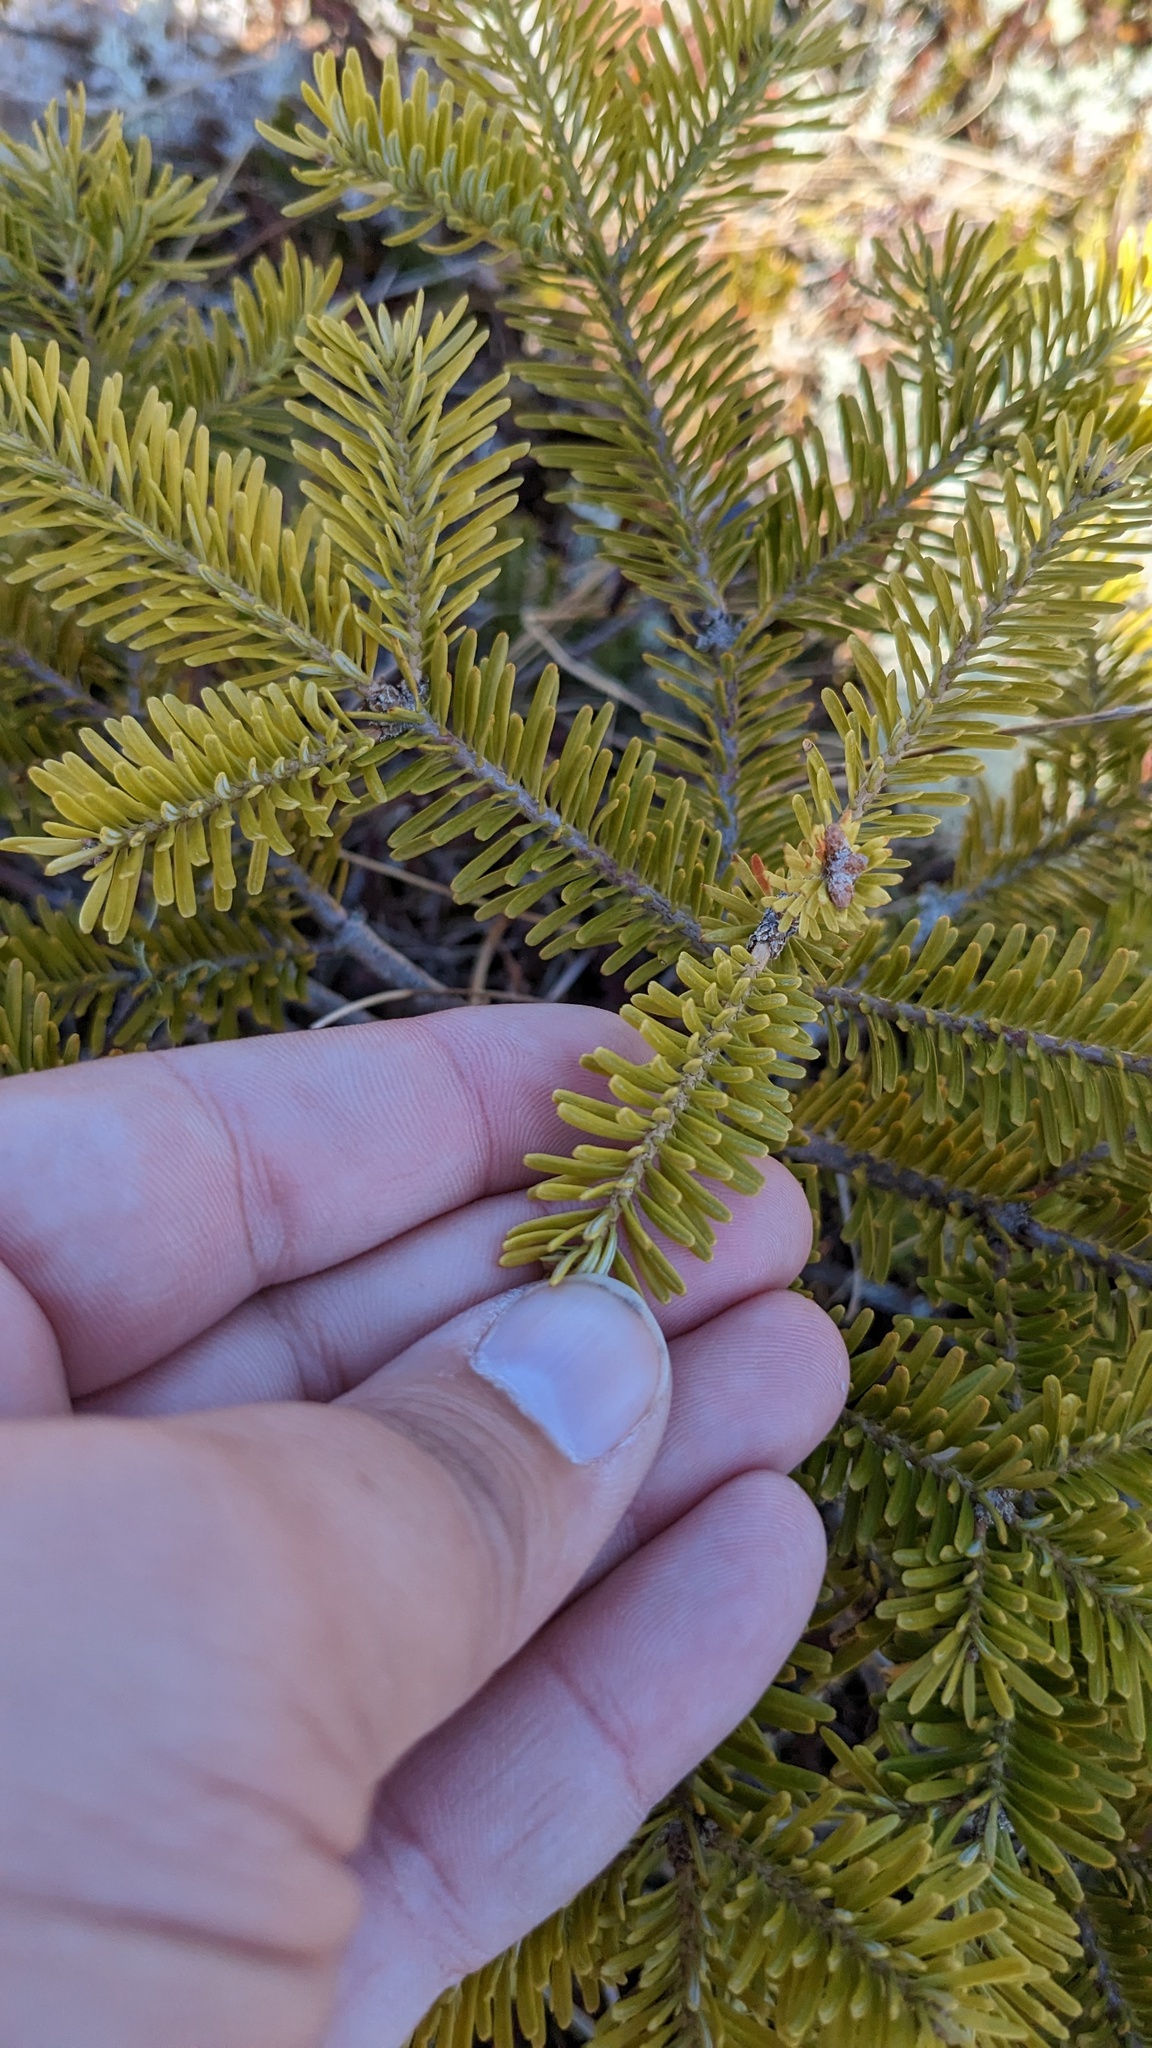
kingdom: Plantae
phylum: Tracheophyta
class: Pinopsida
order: Pinales
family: Pinaceae
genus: Abies
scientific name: Abies balsamea
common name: Balsam fir
